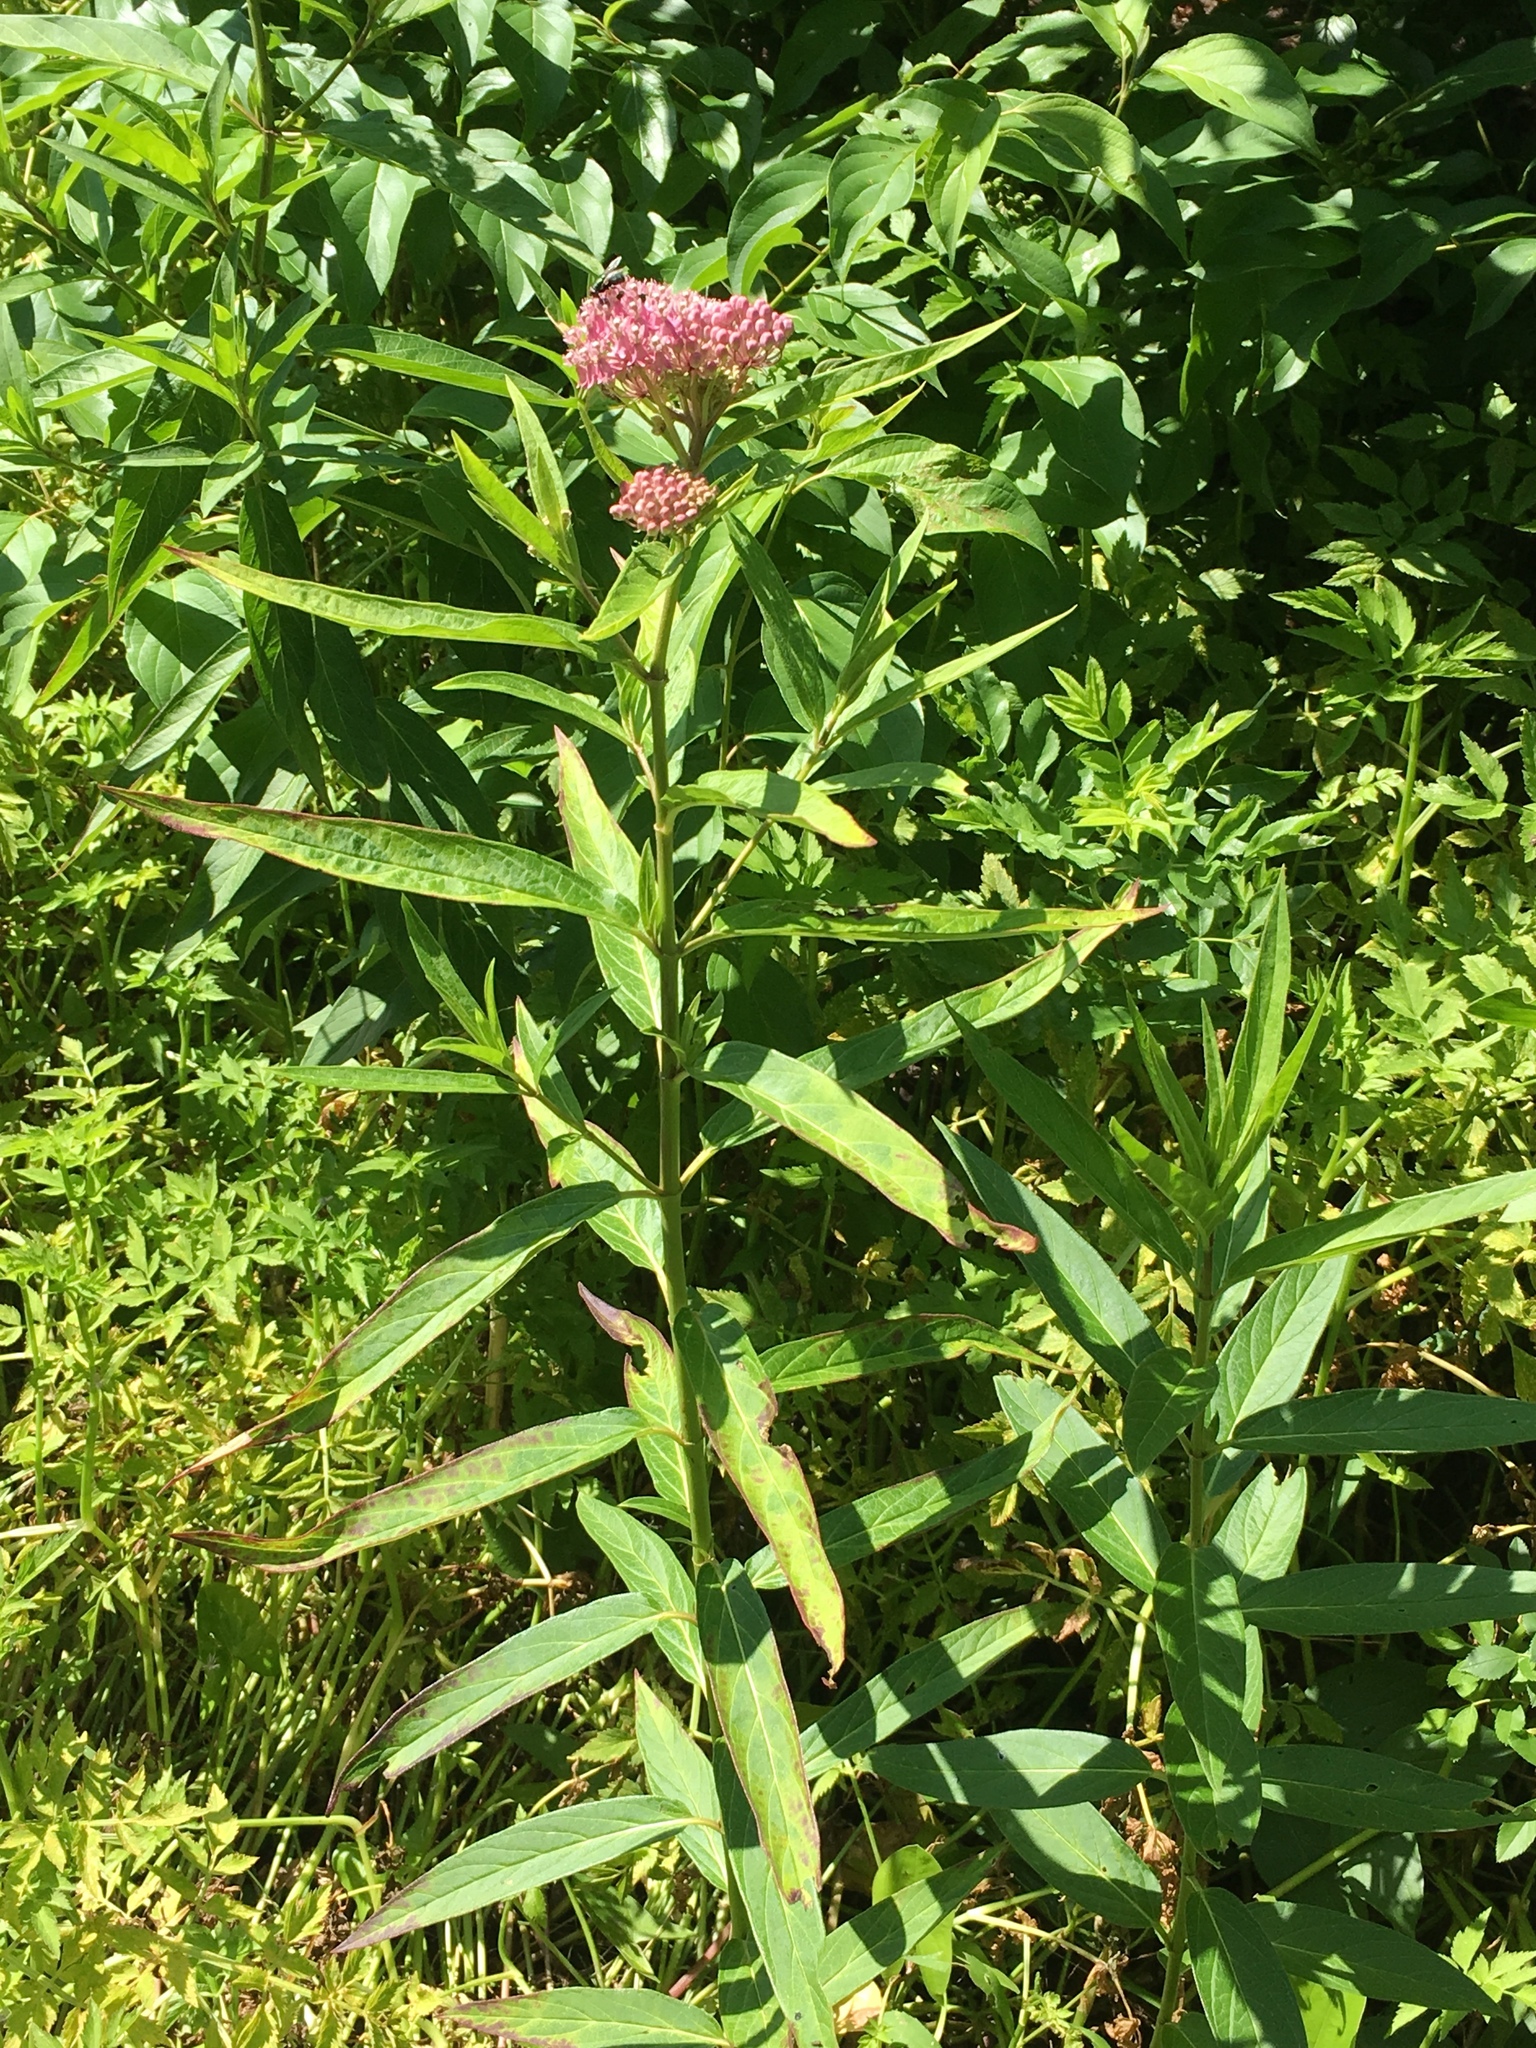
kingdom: Plantae
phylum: Tracheophyta
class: Magnoliopsida
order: Gentianales
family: Apocynaceae
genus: Asclepias
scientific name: Asclepias incarnata
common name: Swamp milkweed
